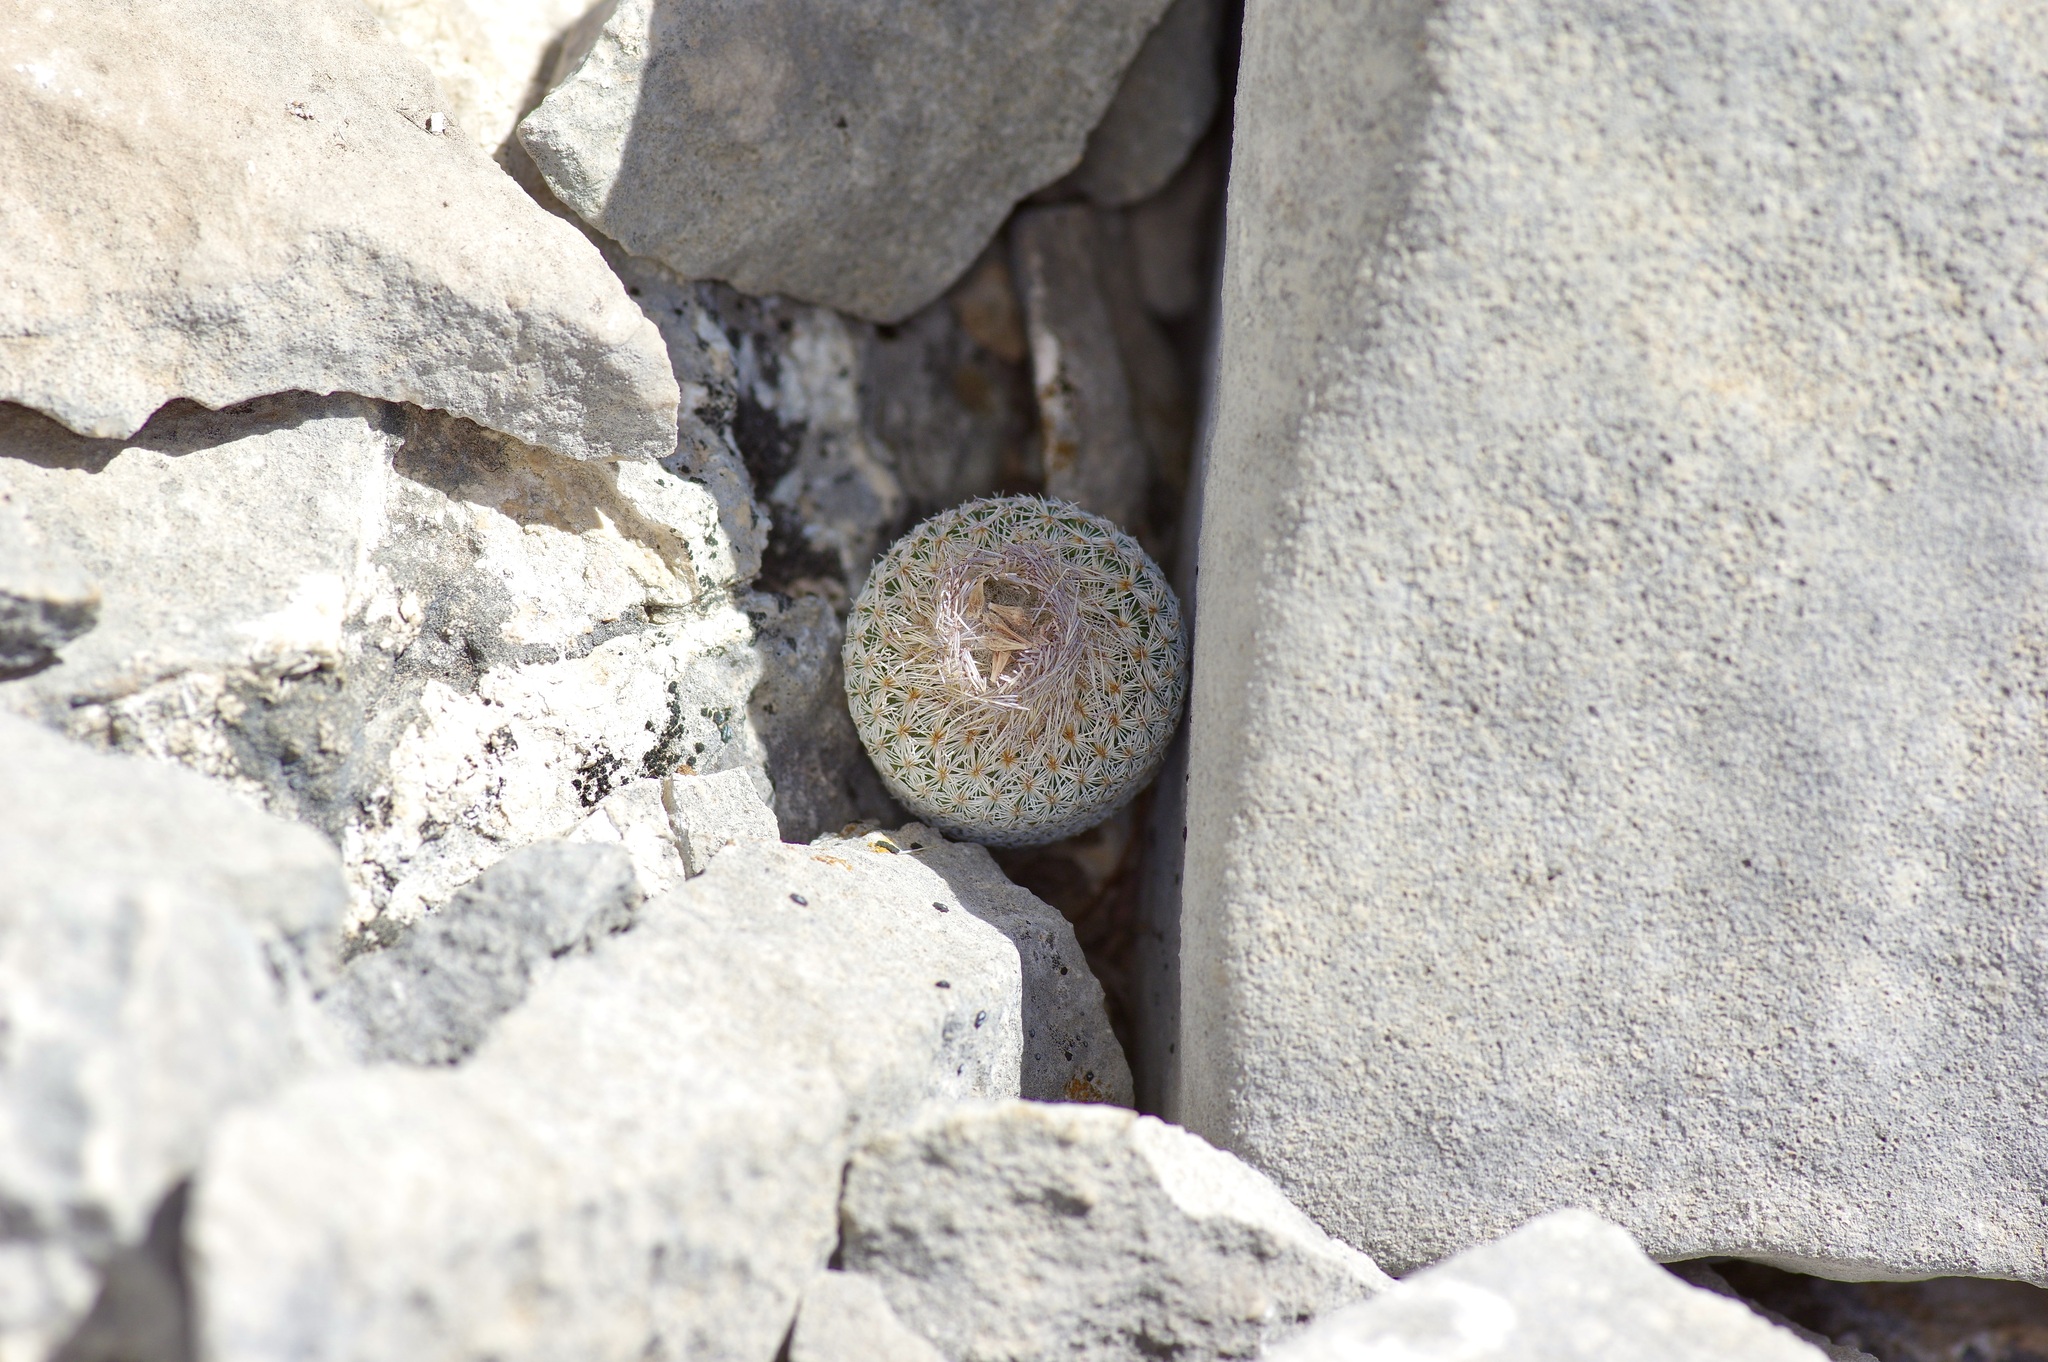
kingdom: Plantae
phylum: Tracheophyta
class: Magnoliopsida
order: Caryophyllales
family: Cactaceae
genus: Epithelantha
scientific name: Epithelantha micromeris
